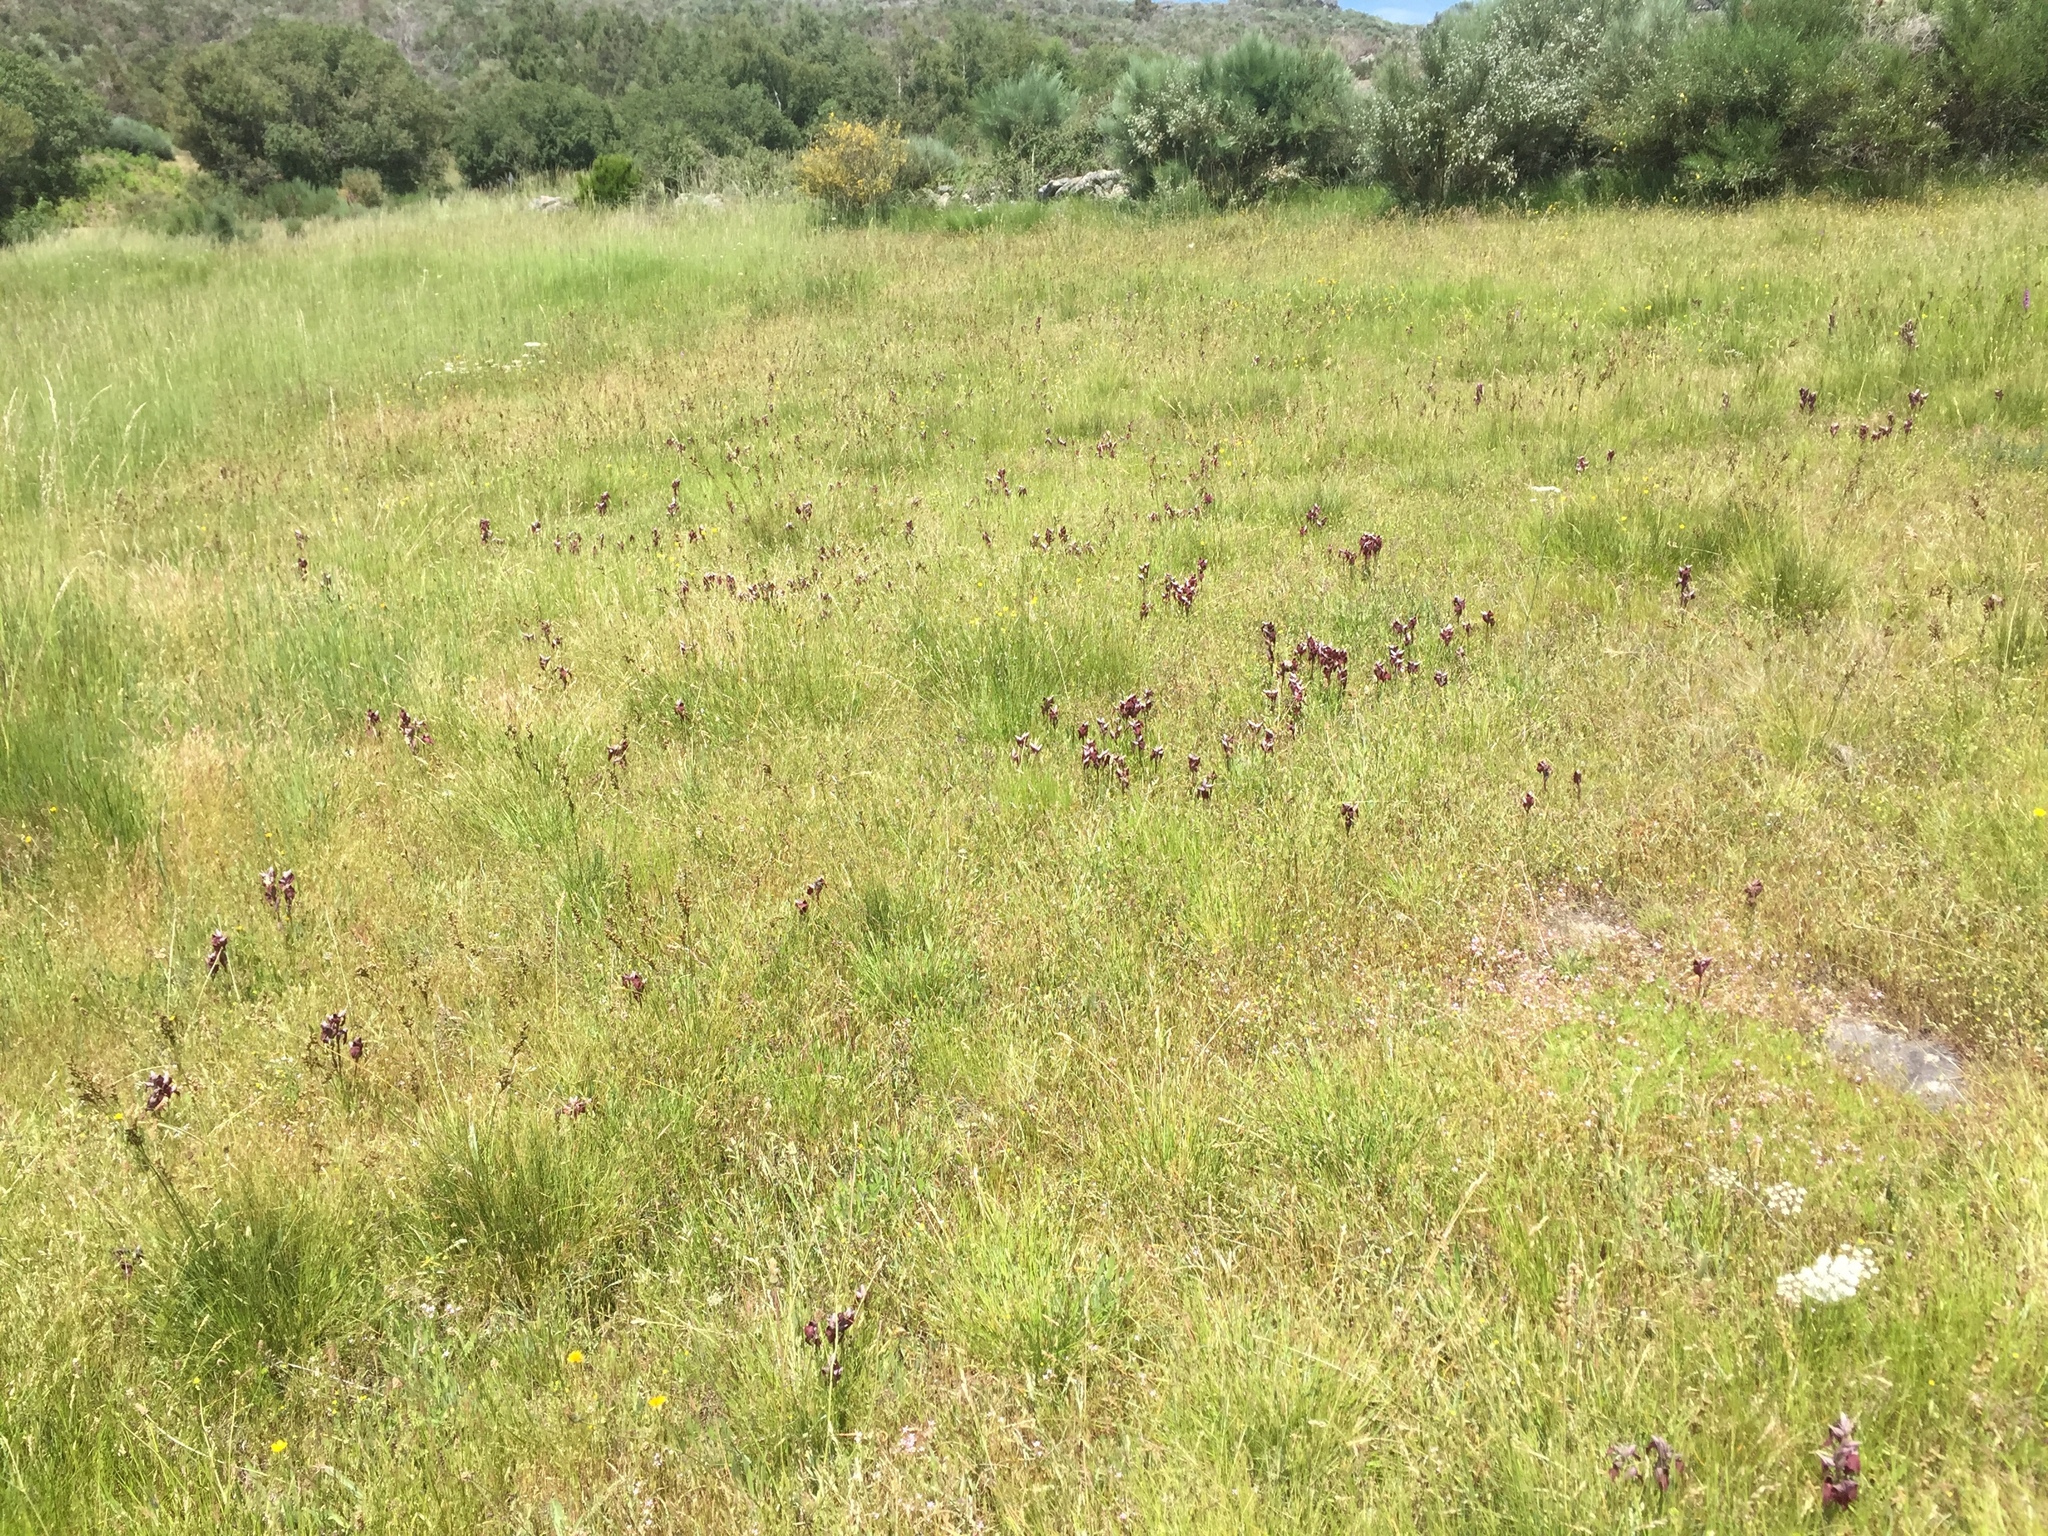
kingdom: Plantae
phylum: Tracheophyta
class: Liliopsida
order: Asparagales
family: Orchidaceae
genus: Serapias
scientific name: Serapias cordigera
